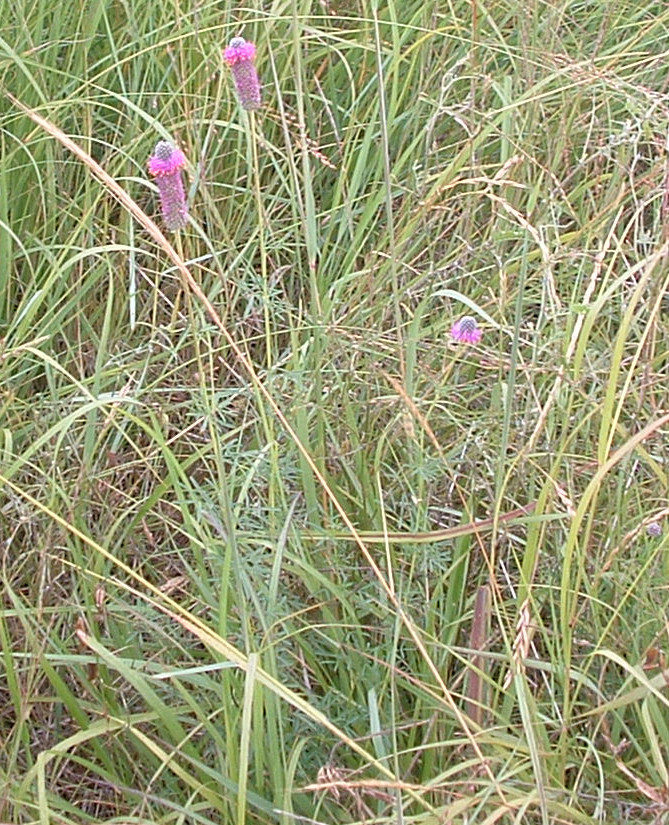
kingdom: Plantae
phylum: Tracheophyta
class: Magnoliopsida
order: Fabales
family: Fabaceae
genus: Dalea
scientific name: Dalea purpurea
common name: Purple prairie-clover
